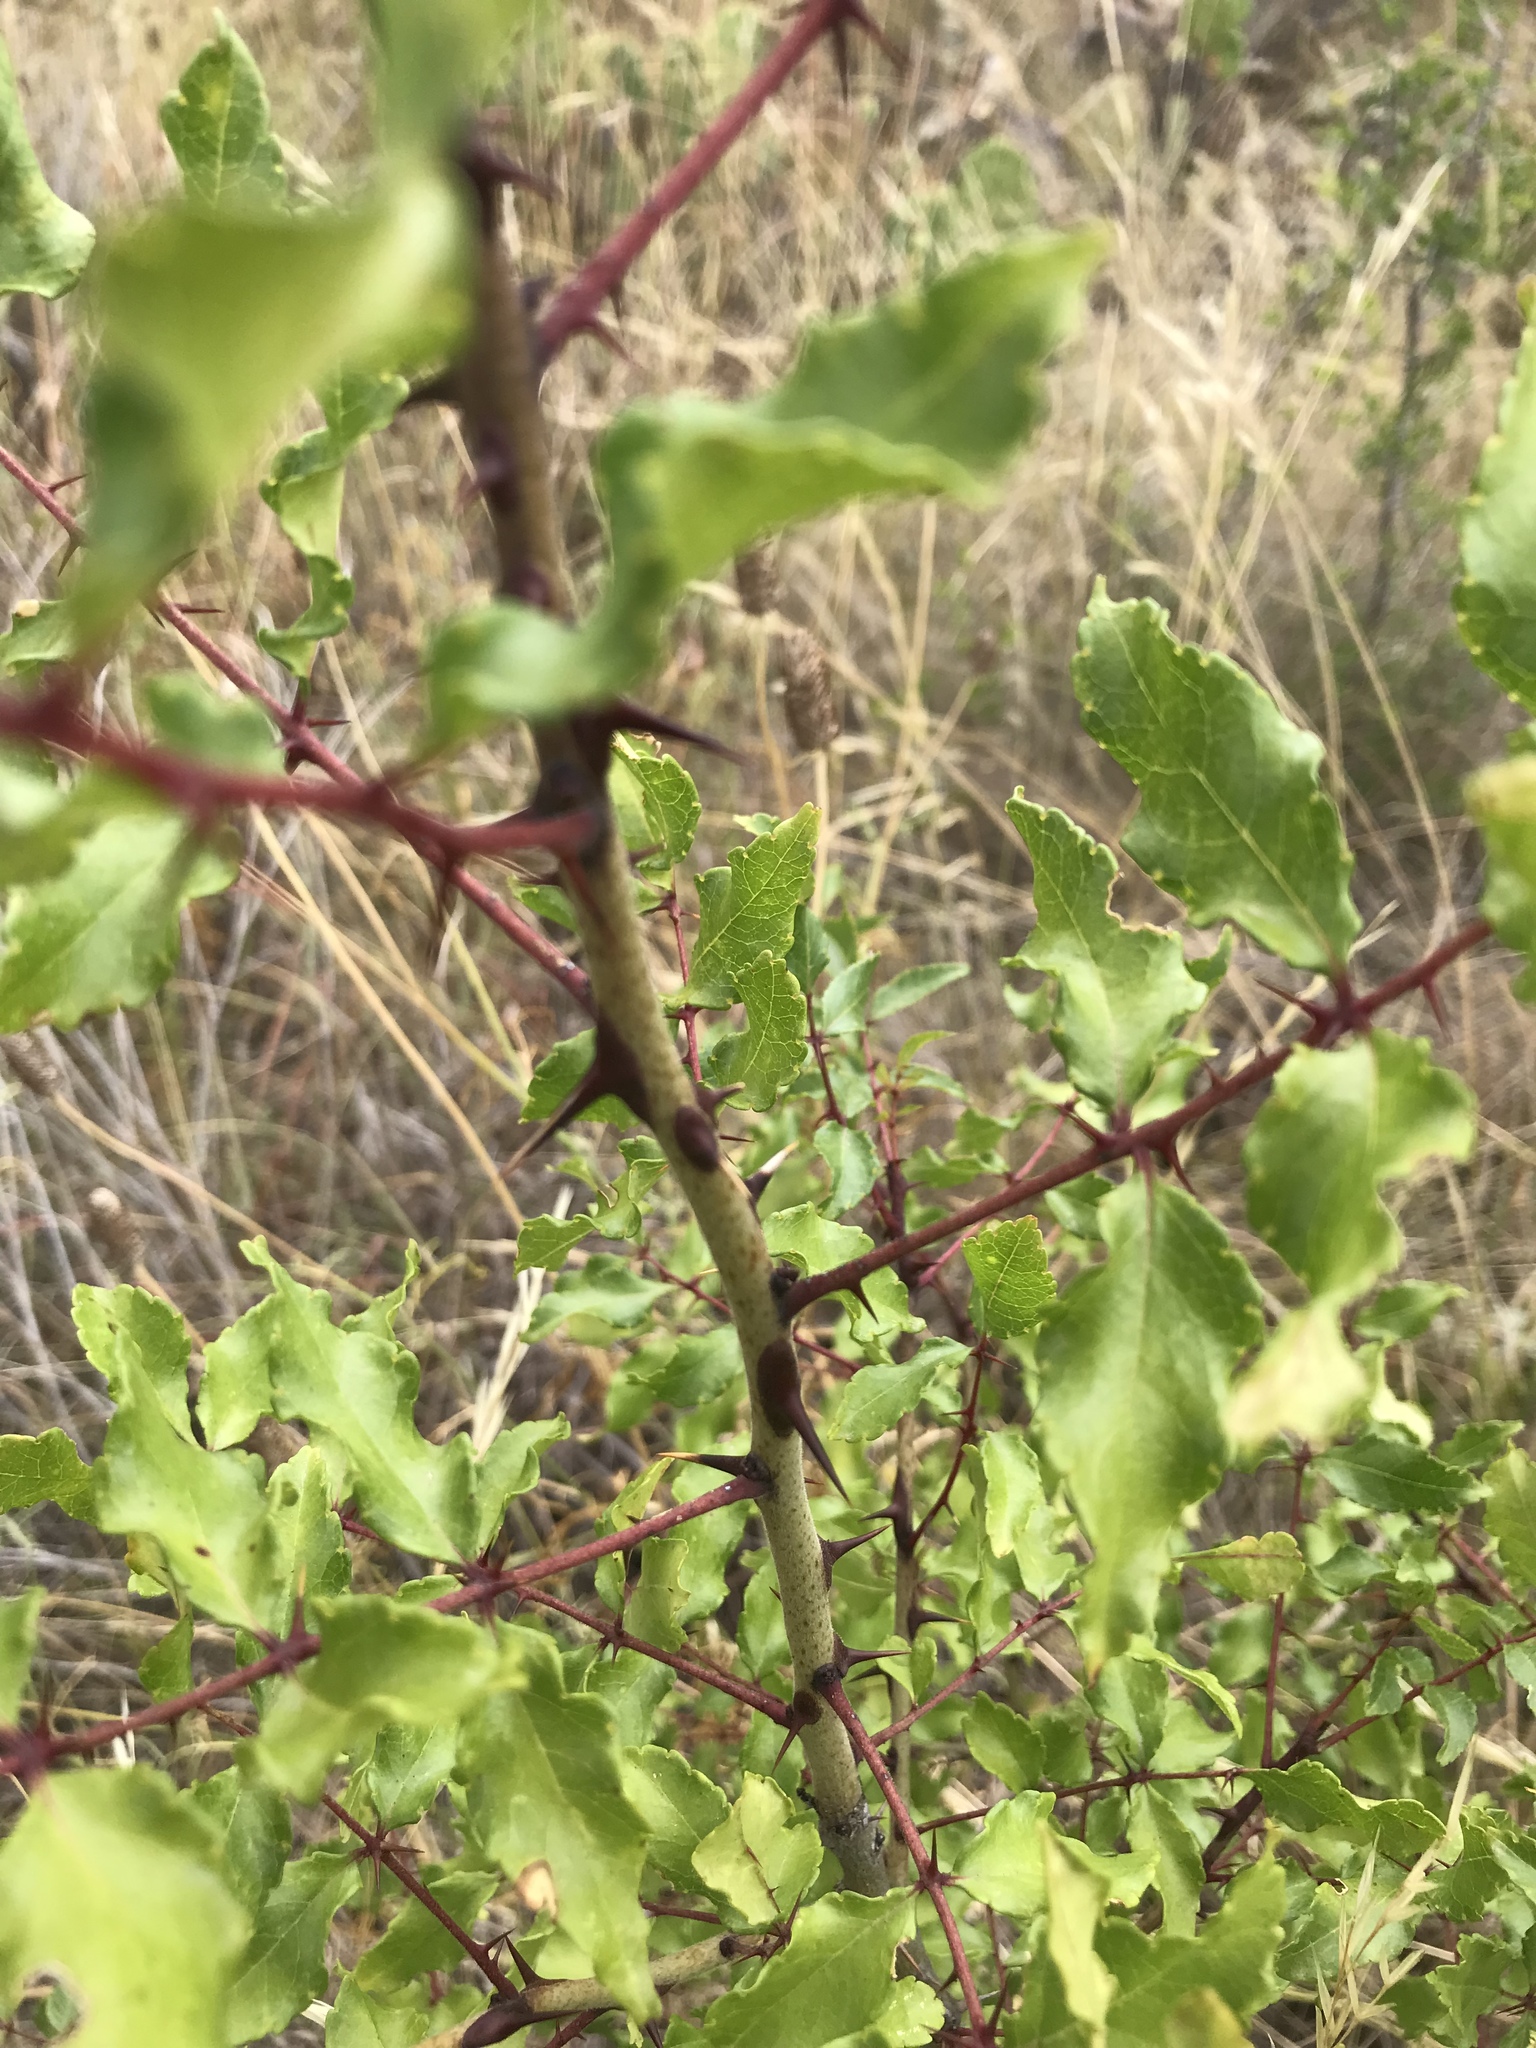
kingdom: Plantae
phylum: Tracheophyta
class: Magnoliopsida
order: Sapindales
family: Rutaceae
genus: Zanthoxylum
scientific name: Zanthoxylum clava-herculis
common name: Hercules'-club
